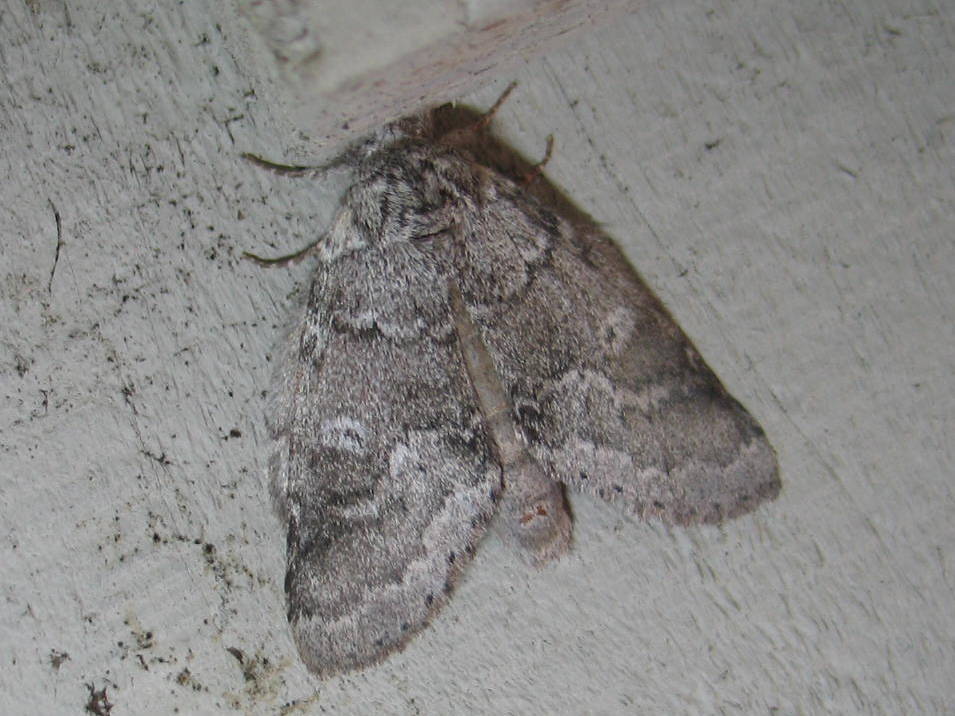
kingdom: Animalia
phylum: Arthropoda
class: Insecta
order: Lepidoptera
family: Notodontidae
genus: Lochmaeus
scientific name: Lochmaeus bilineata
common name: Double-lined prominent
